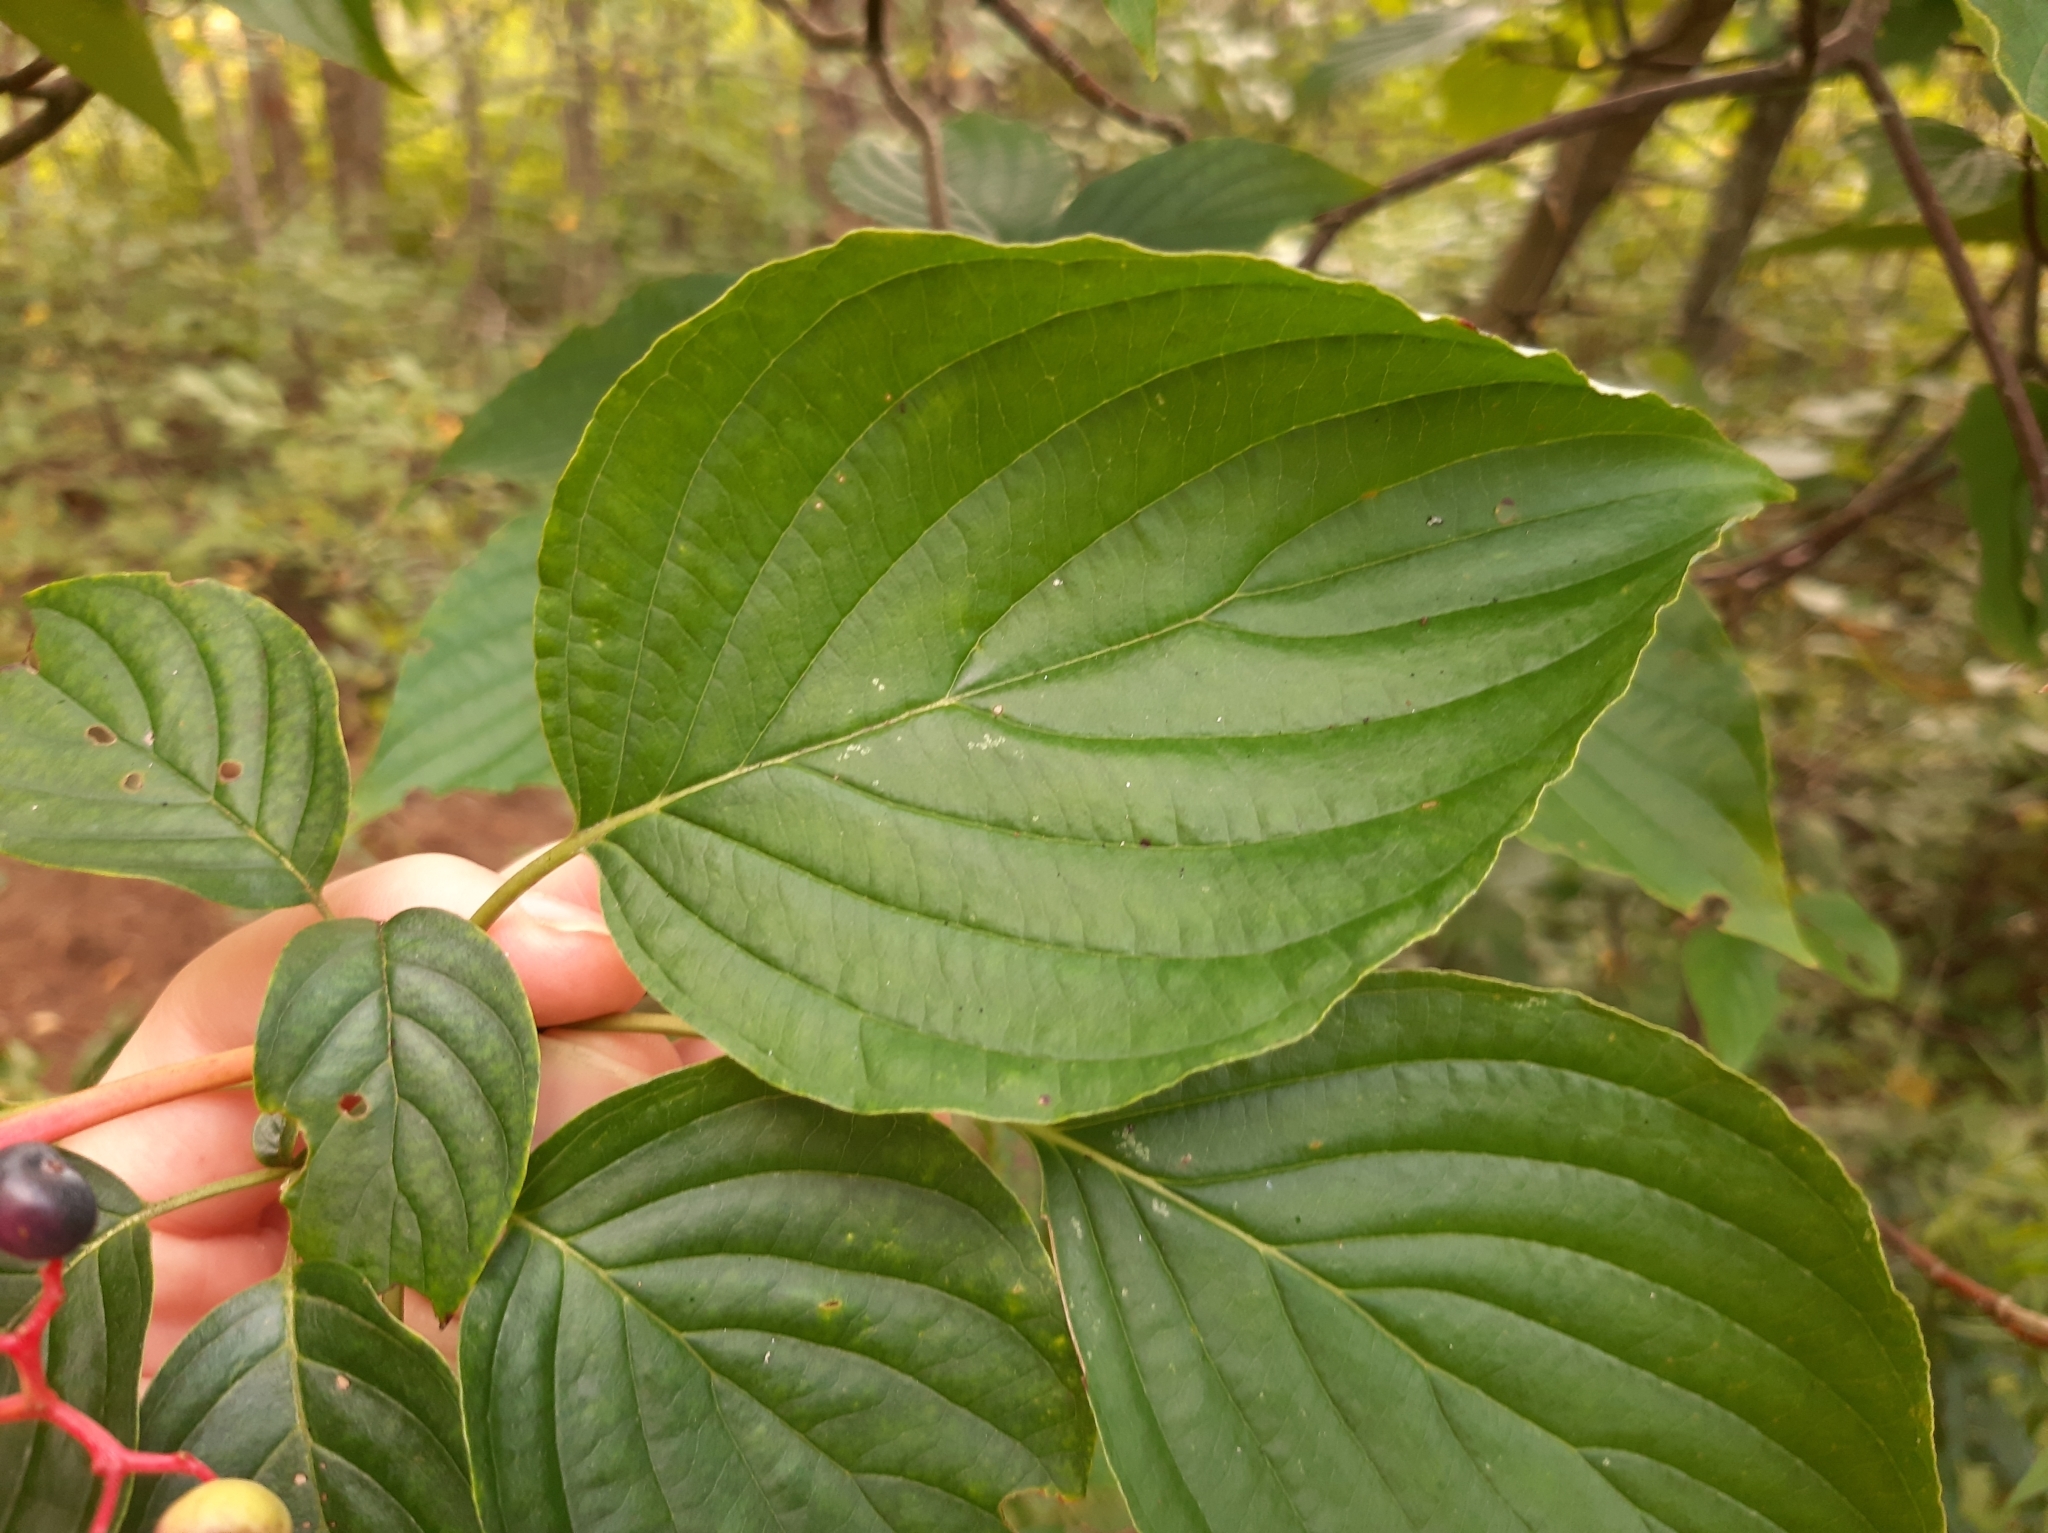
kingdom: Plantae
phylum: Tracheophyta
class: Magnoliopsida
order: Cornales
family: Cornaceae
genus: Cornus
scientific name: Cornus alternifolia
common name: Pagoda dogwood
